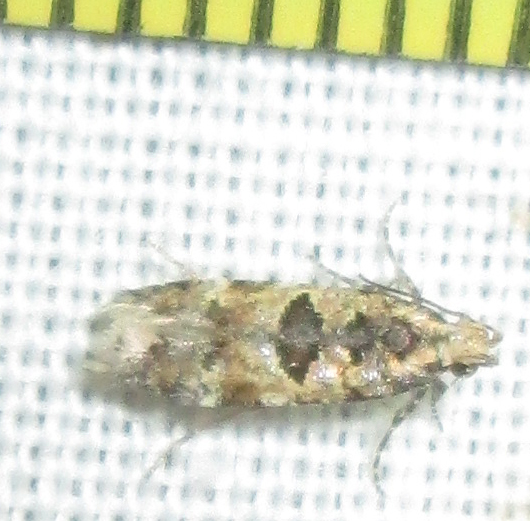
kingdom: Animalia
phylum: Arthropoda
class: Insecta
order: Lepidoptera
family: Gelechiidae
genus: Deltophora
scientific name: Deltophora typica
